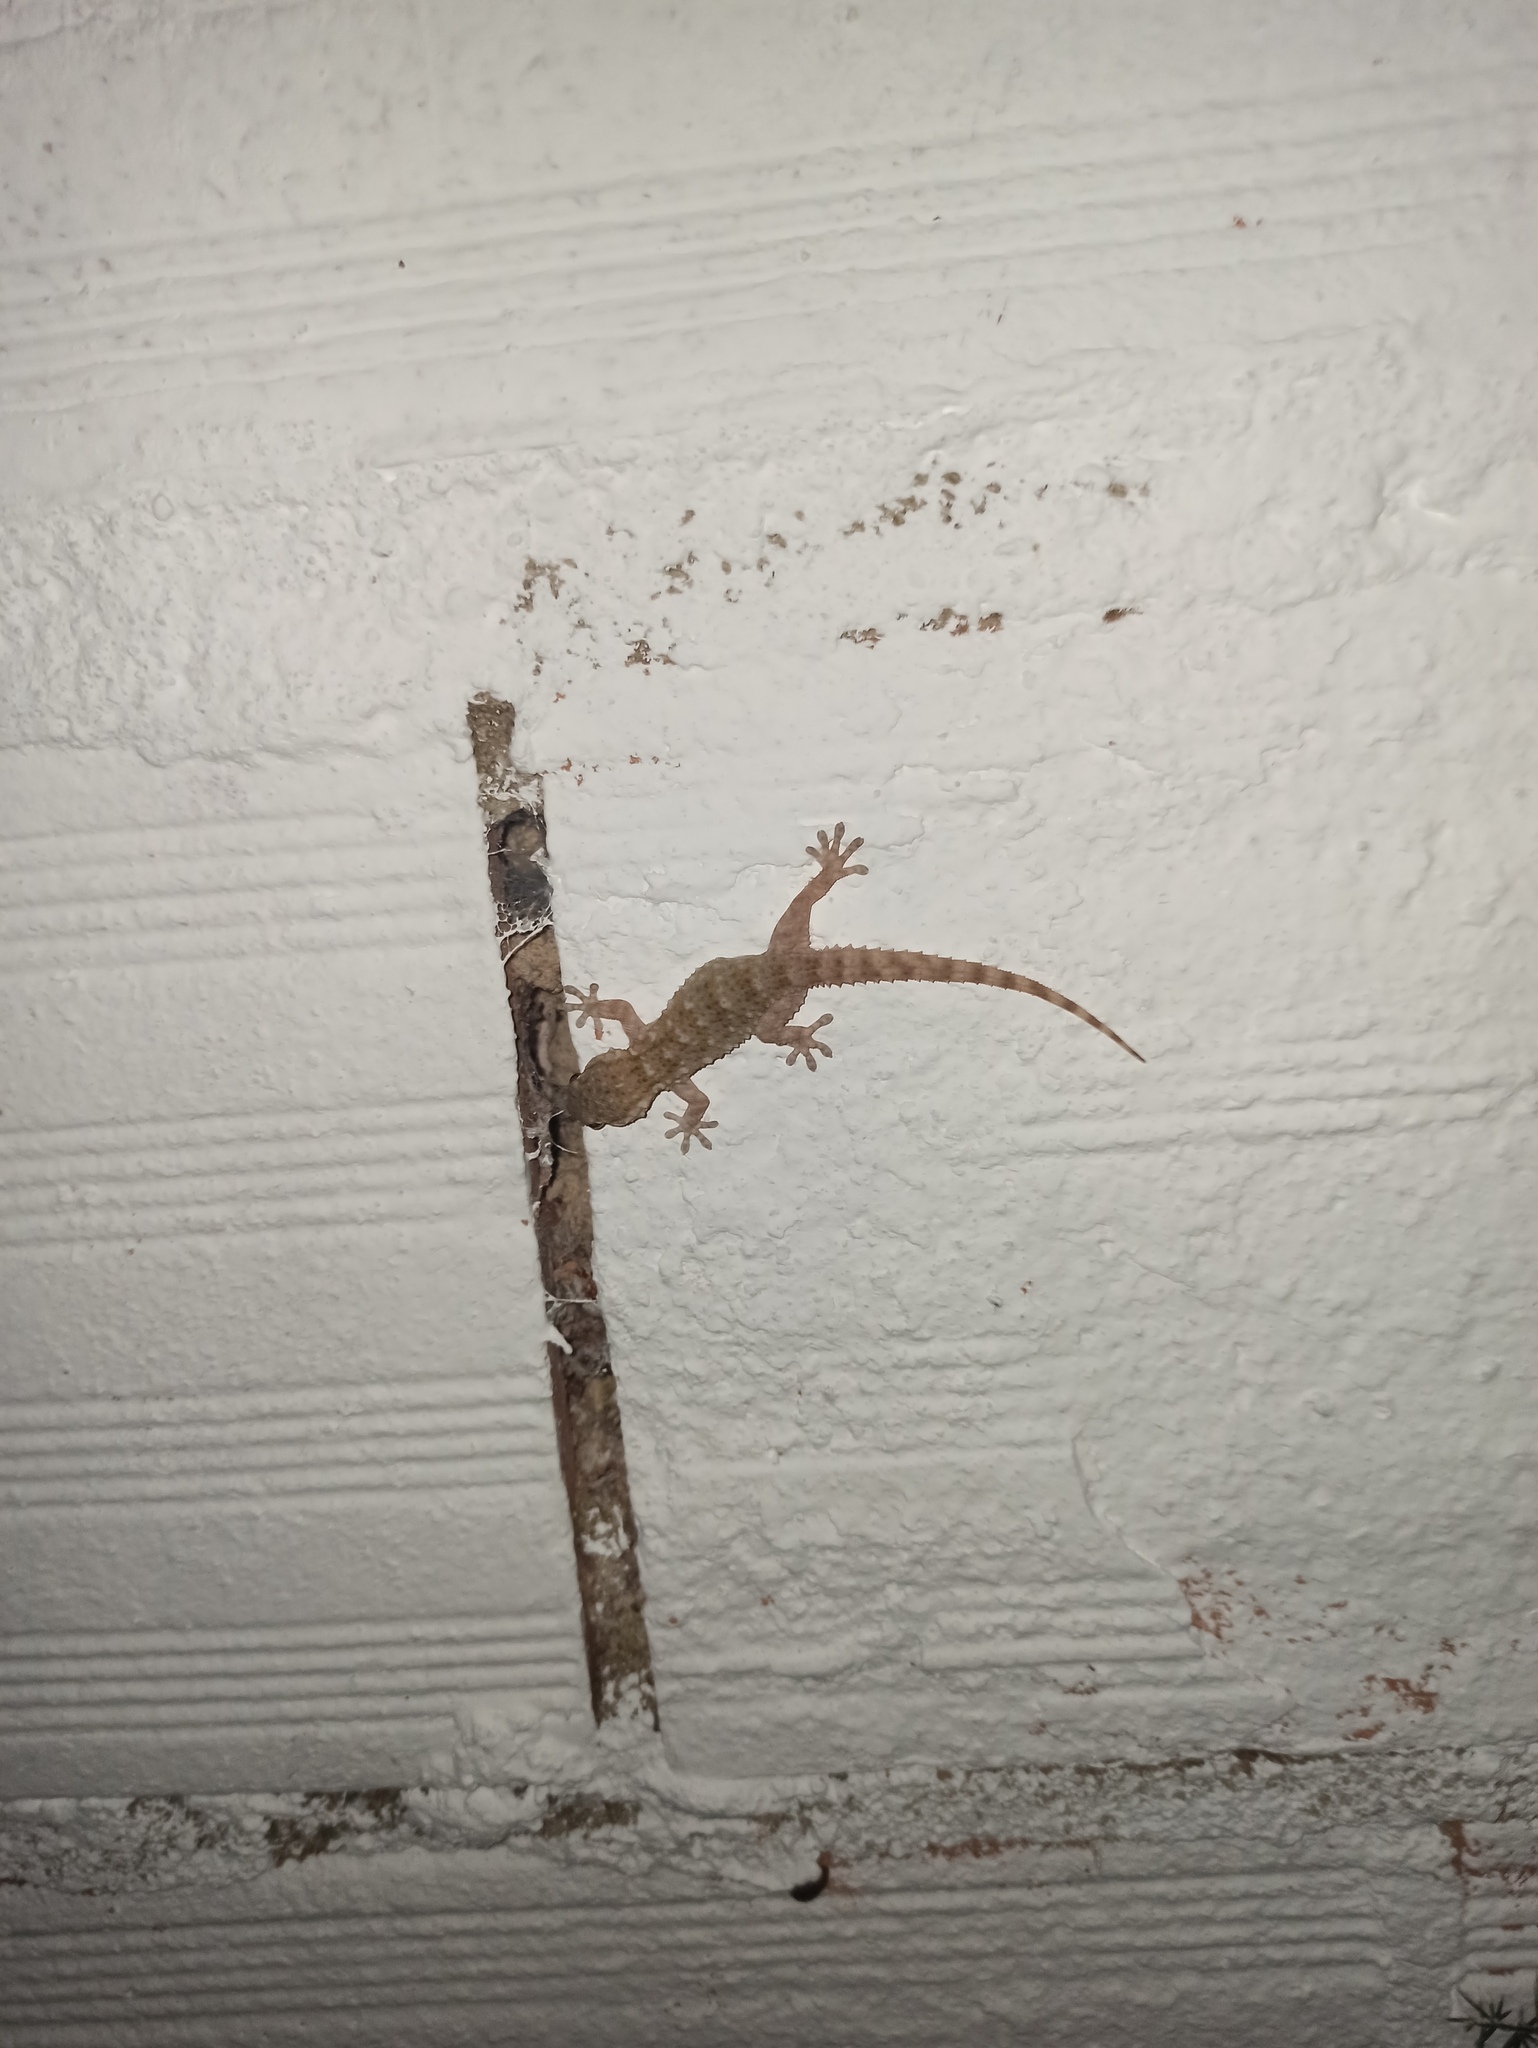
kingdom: Animalia
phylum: Chordata
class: Squamata
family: Phyllodactylidae
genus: Tarentola
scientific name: Tarentola mauritanica
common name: Moorish gecko
